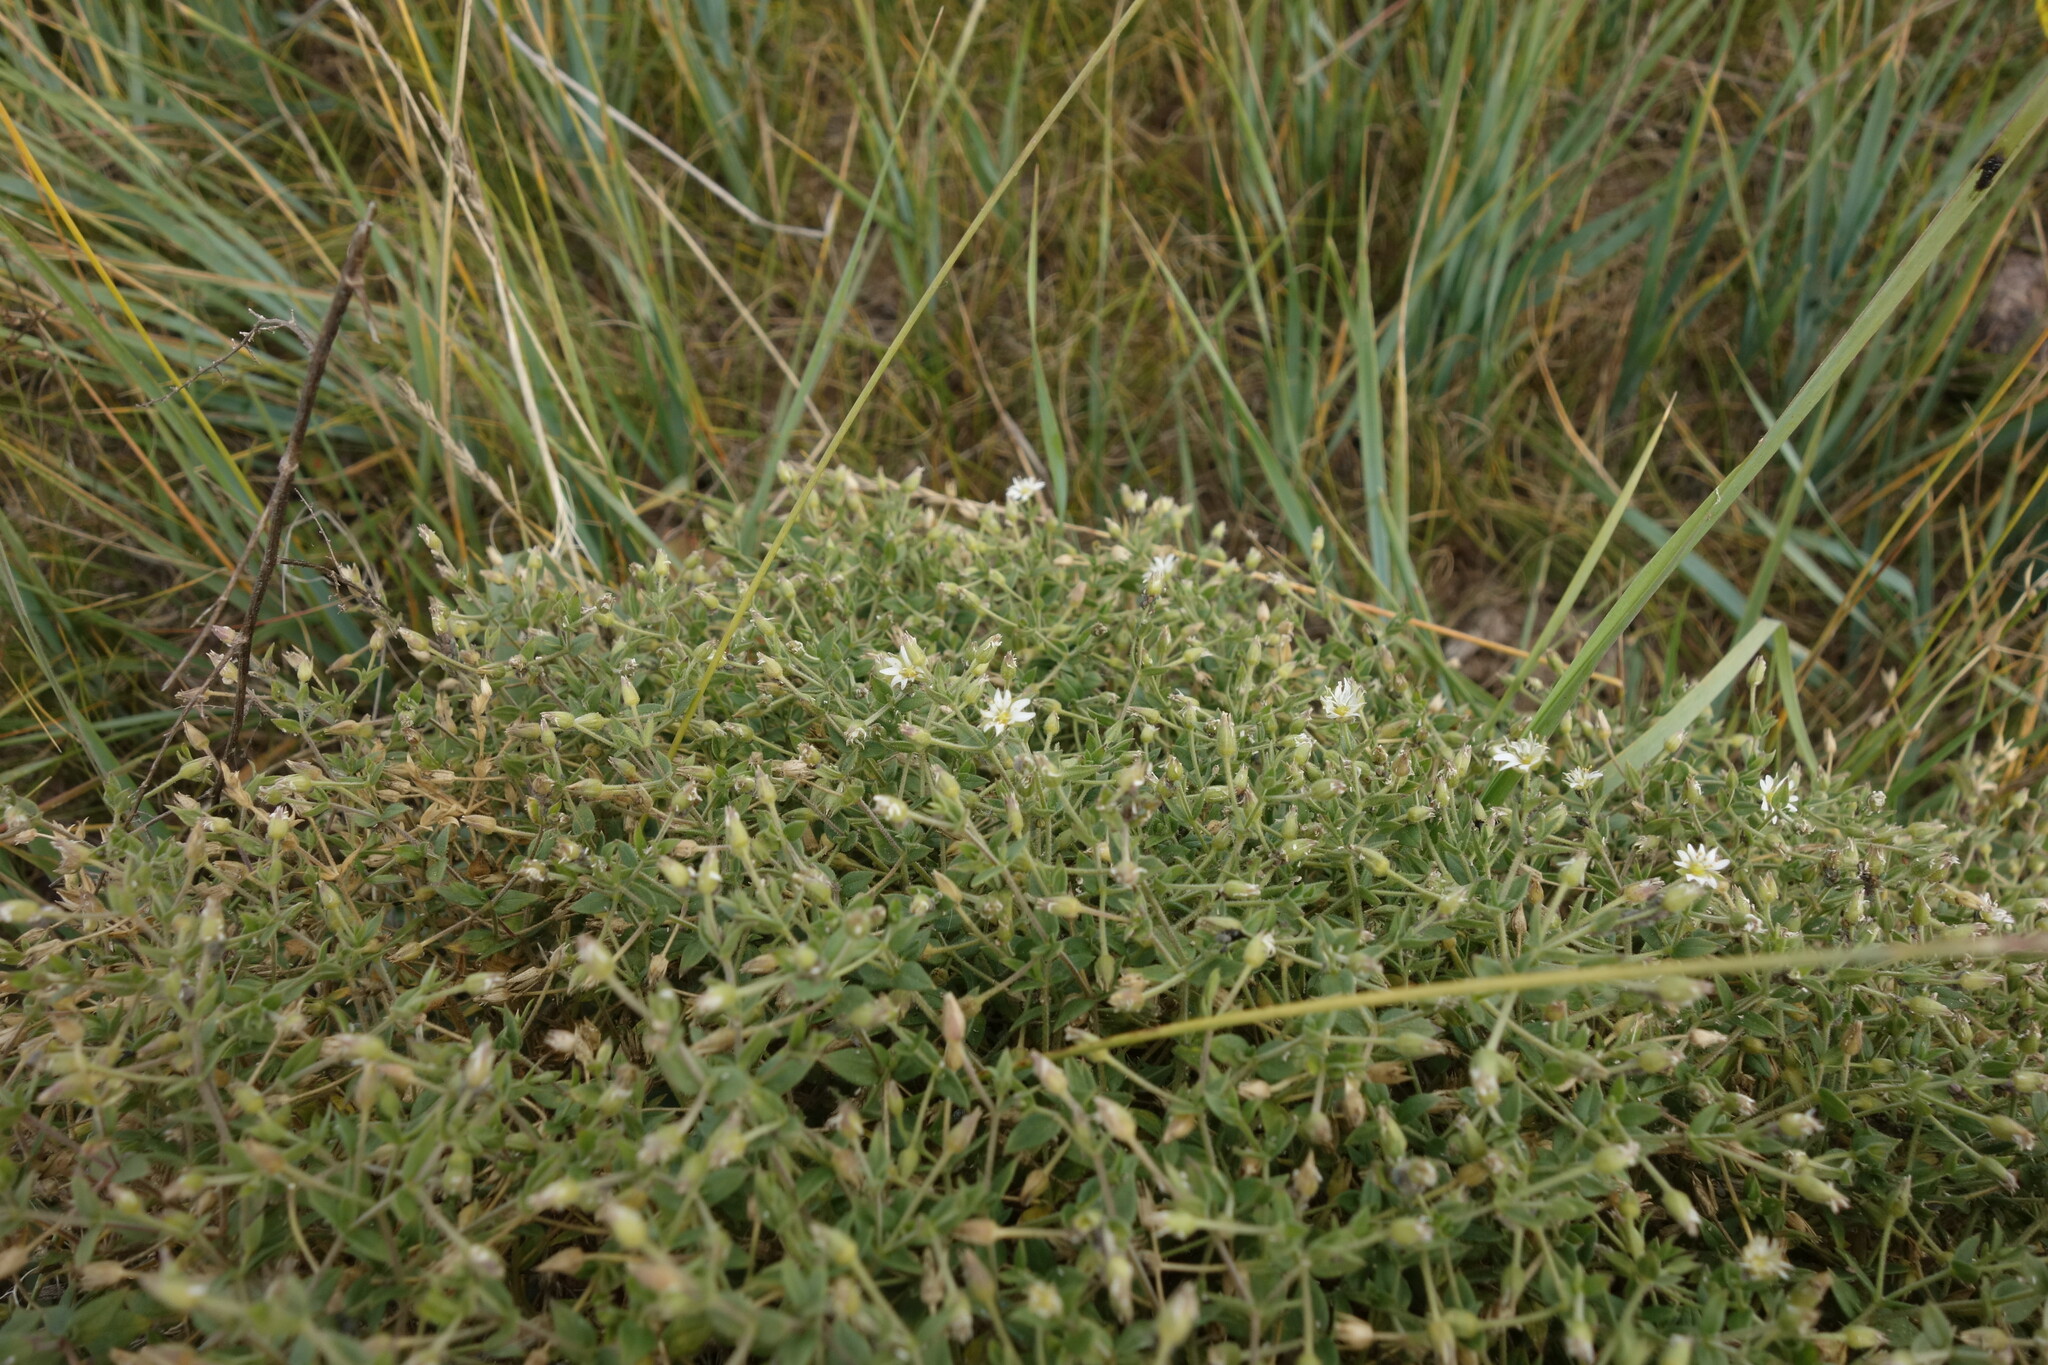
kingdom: Plantae
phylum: Tracheophyta
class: Magnoliopsida
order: Caryophyllales
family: Caryophyllaceae
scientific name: Caryophyllaceae
